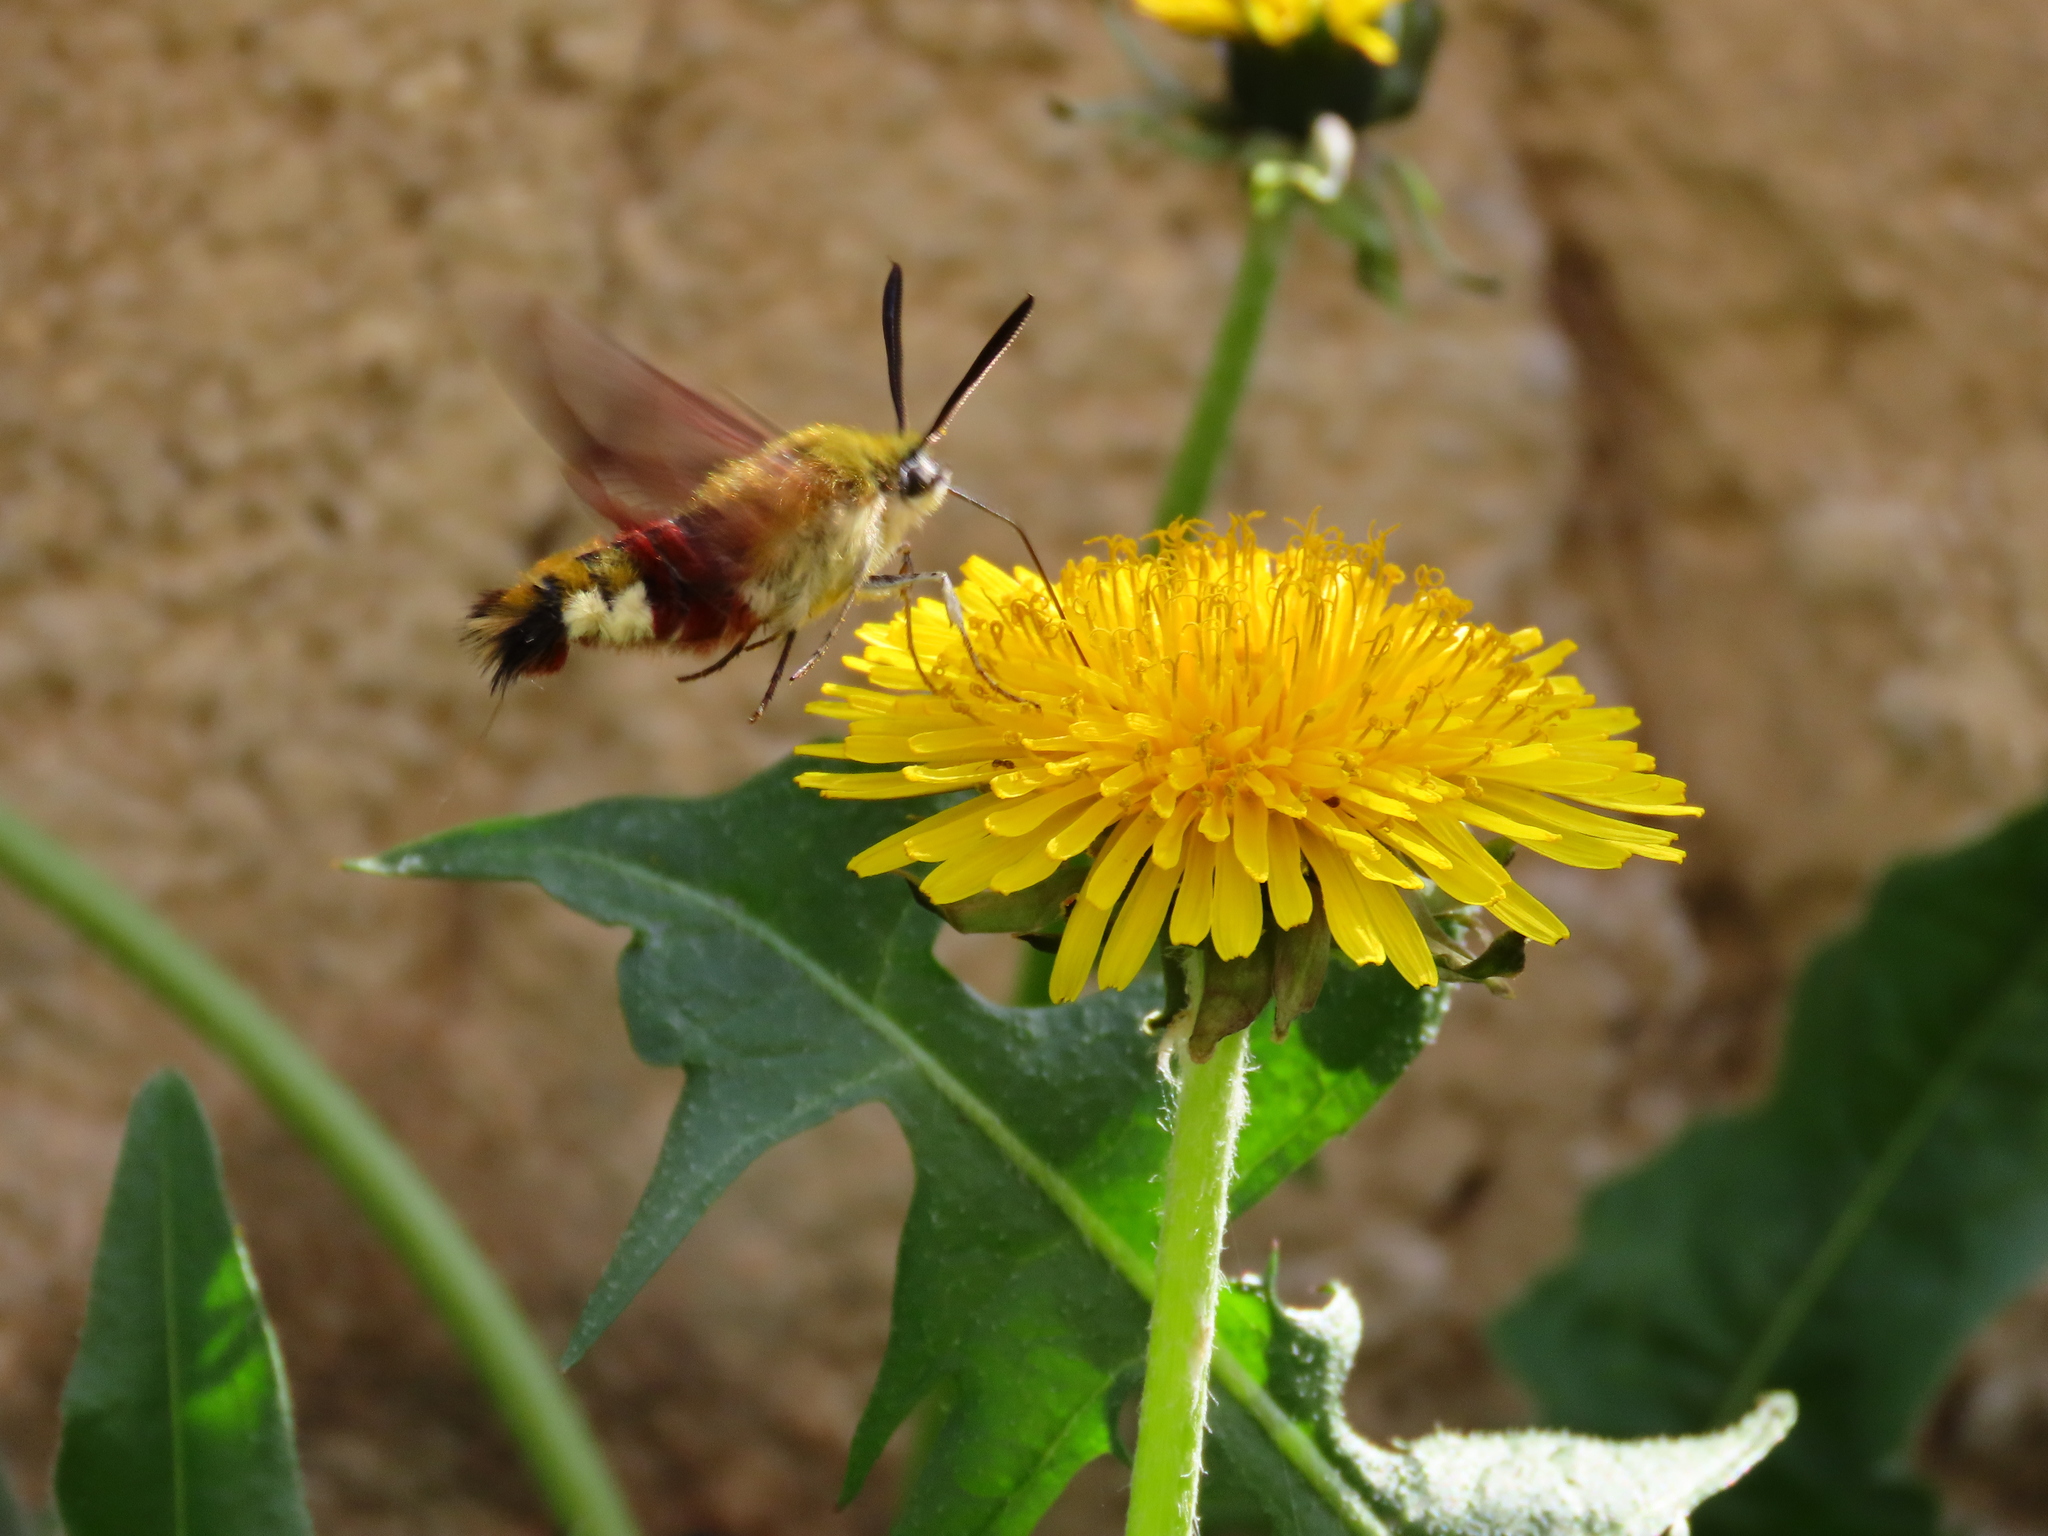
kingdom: Animalia
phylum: Arthropoda
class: Insecta
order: Lepidoptera
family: Sphingidae
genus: Hemaris
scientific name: Hemaris fuciformis
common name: Broad-bordered bee hawk-moth
